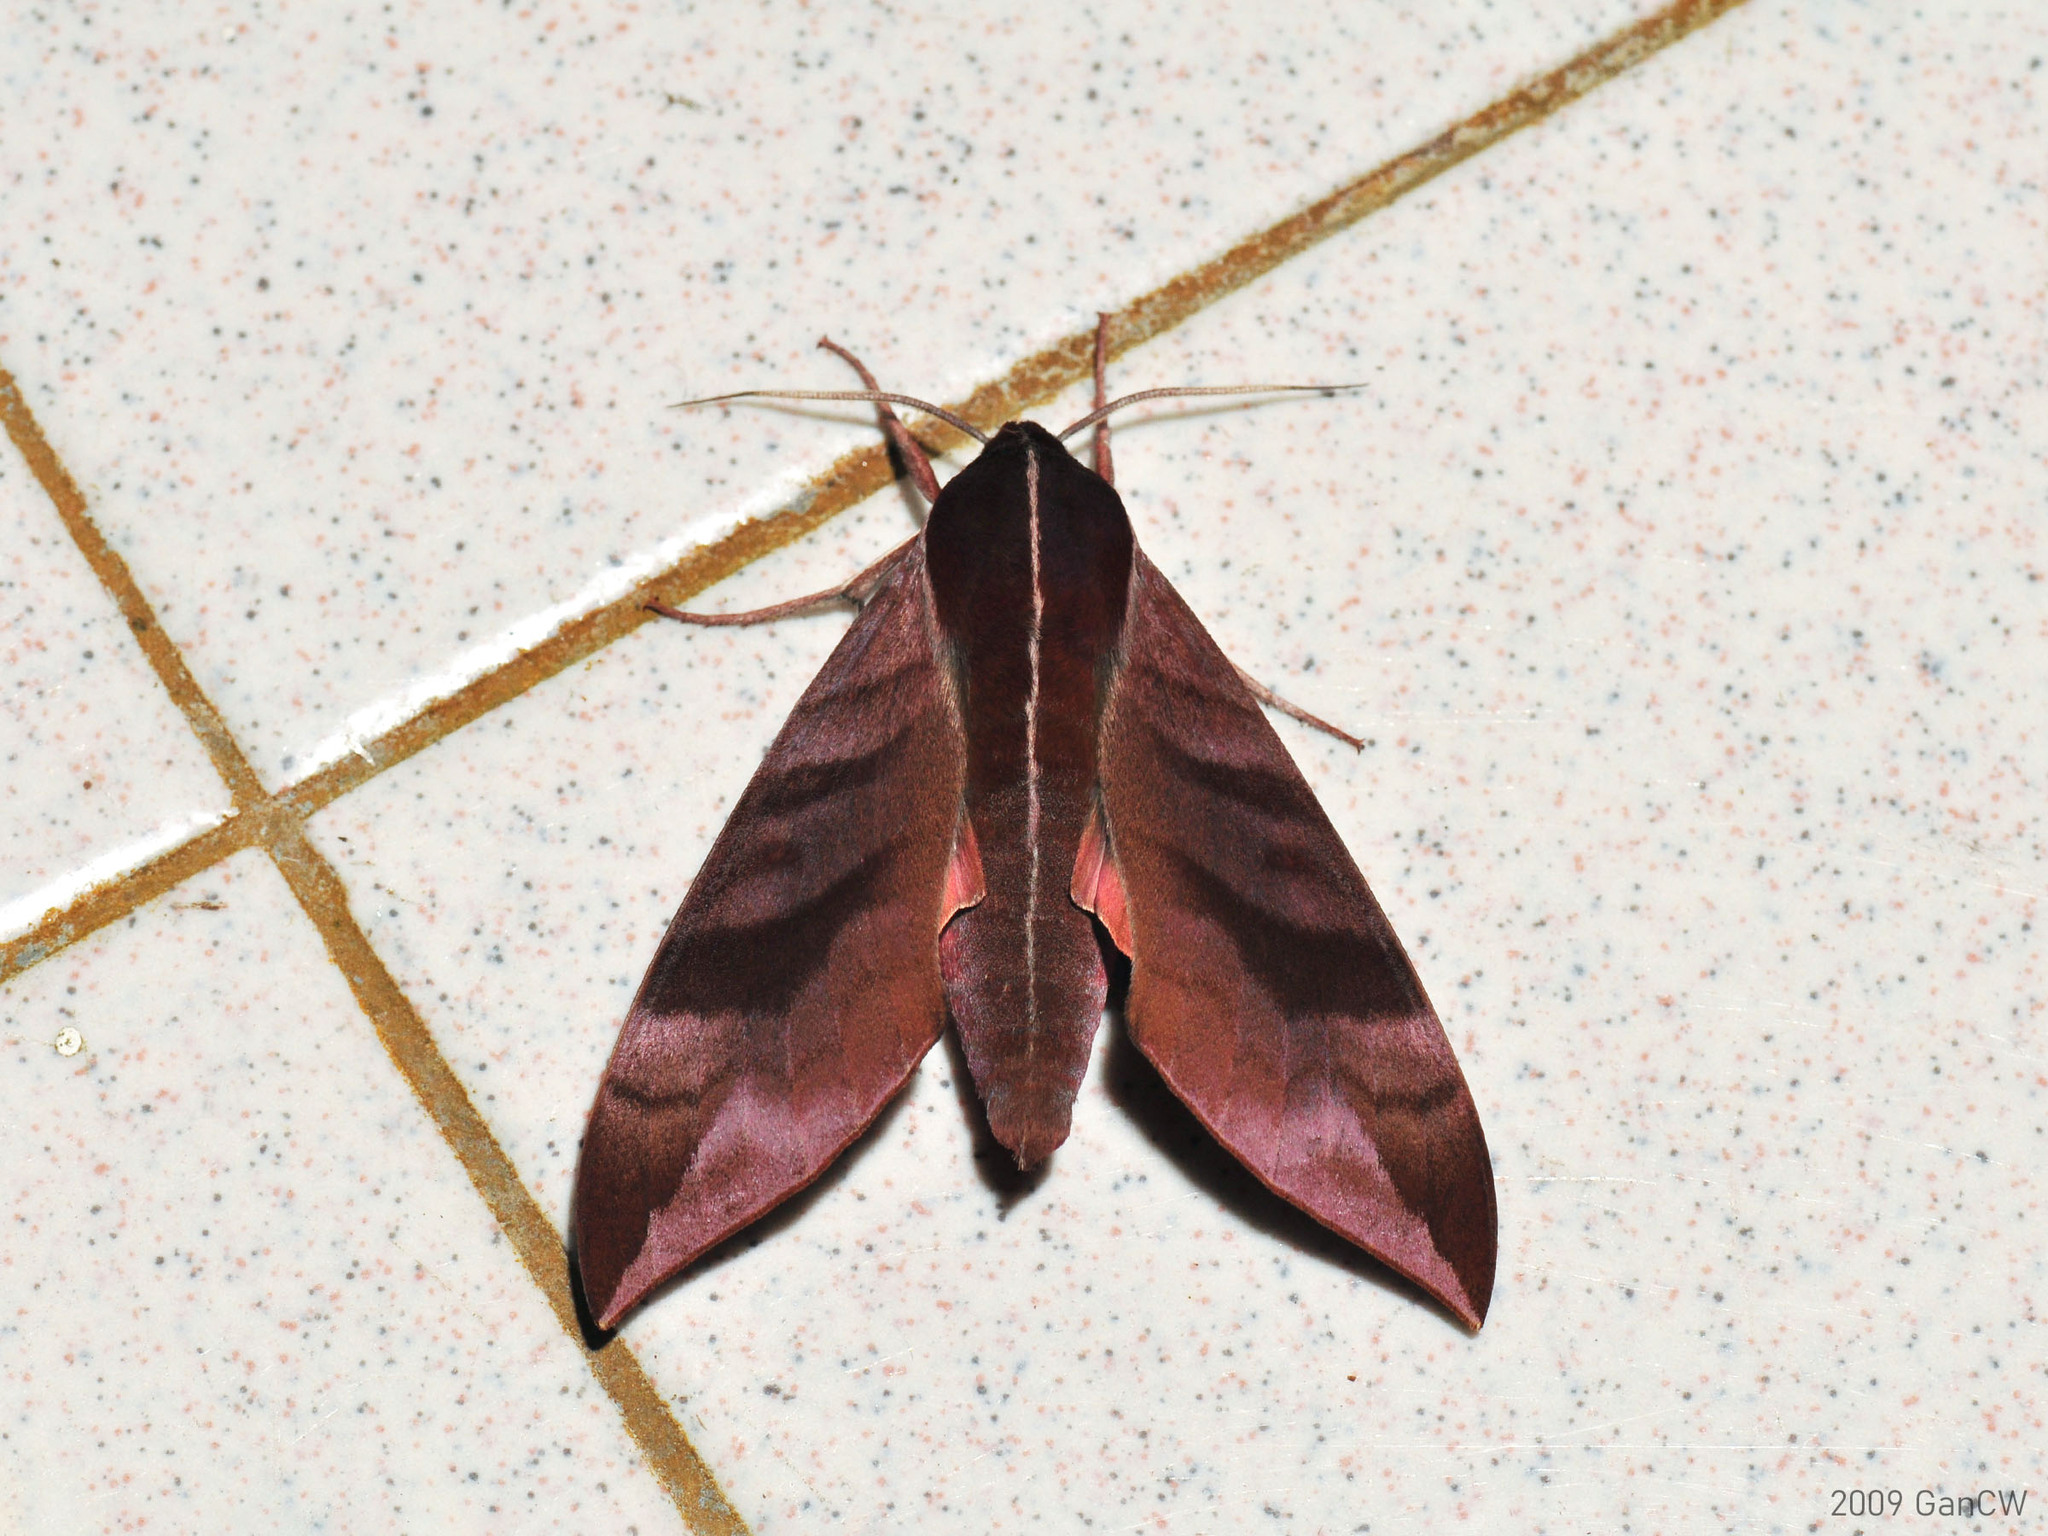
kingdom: Animalia
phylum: Arthropoda
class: Insecta
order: Lepidoptera
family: Sphingidae
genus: Ampelophaga
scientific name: Ampelophaga rubiginosa
